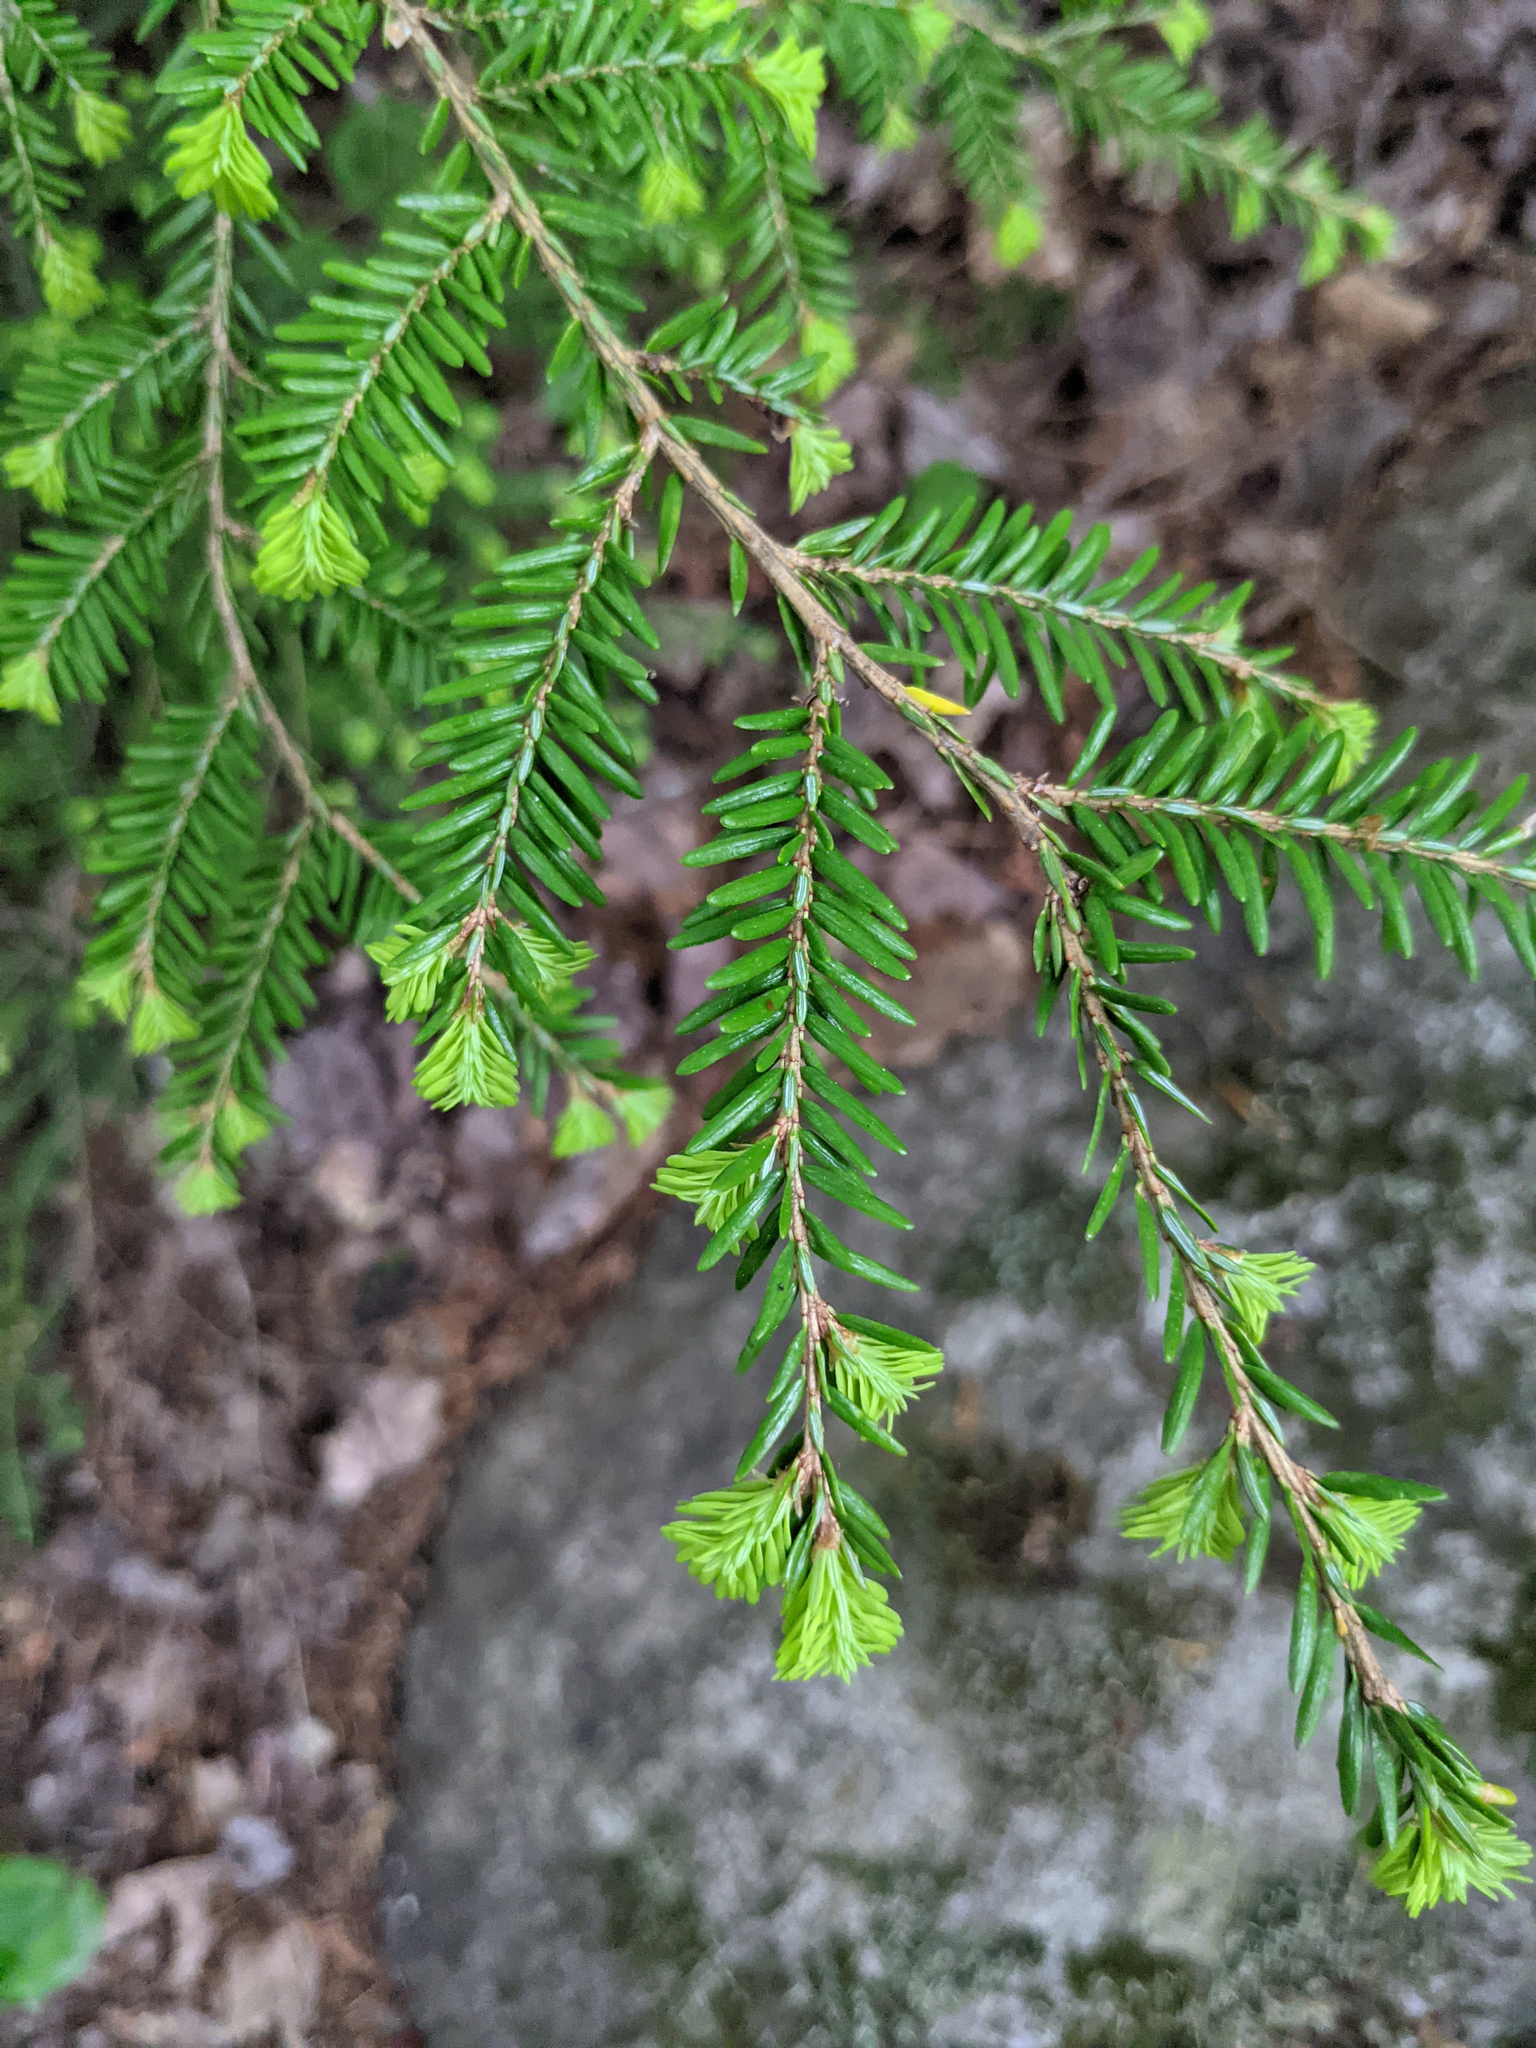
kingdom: Plantae
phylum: Tracheophyta
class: Pinopsida
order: Pinales
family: Pinaceae
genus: Tsuga
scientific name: Tsuga canadensis
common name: Eastern hemlock
